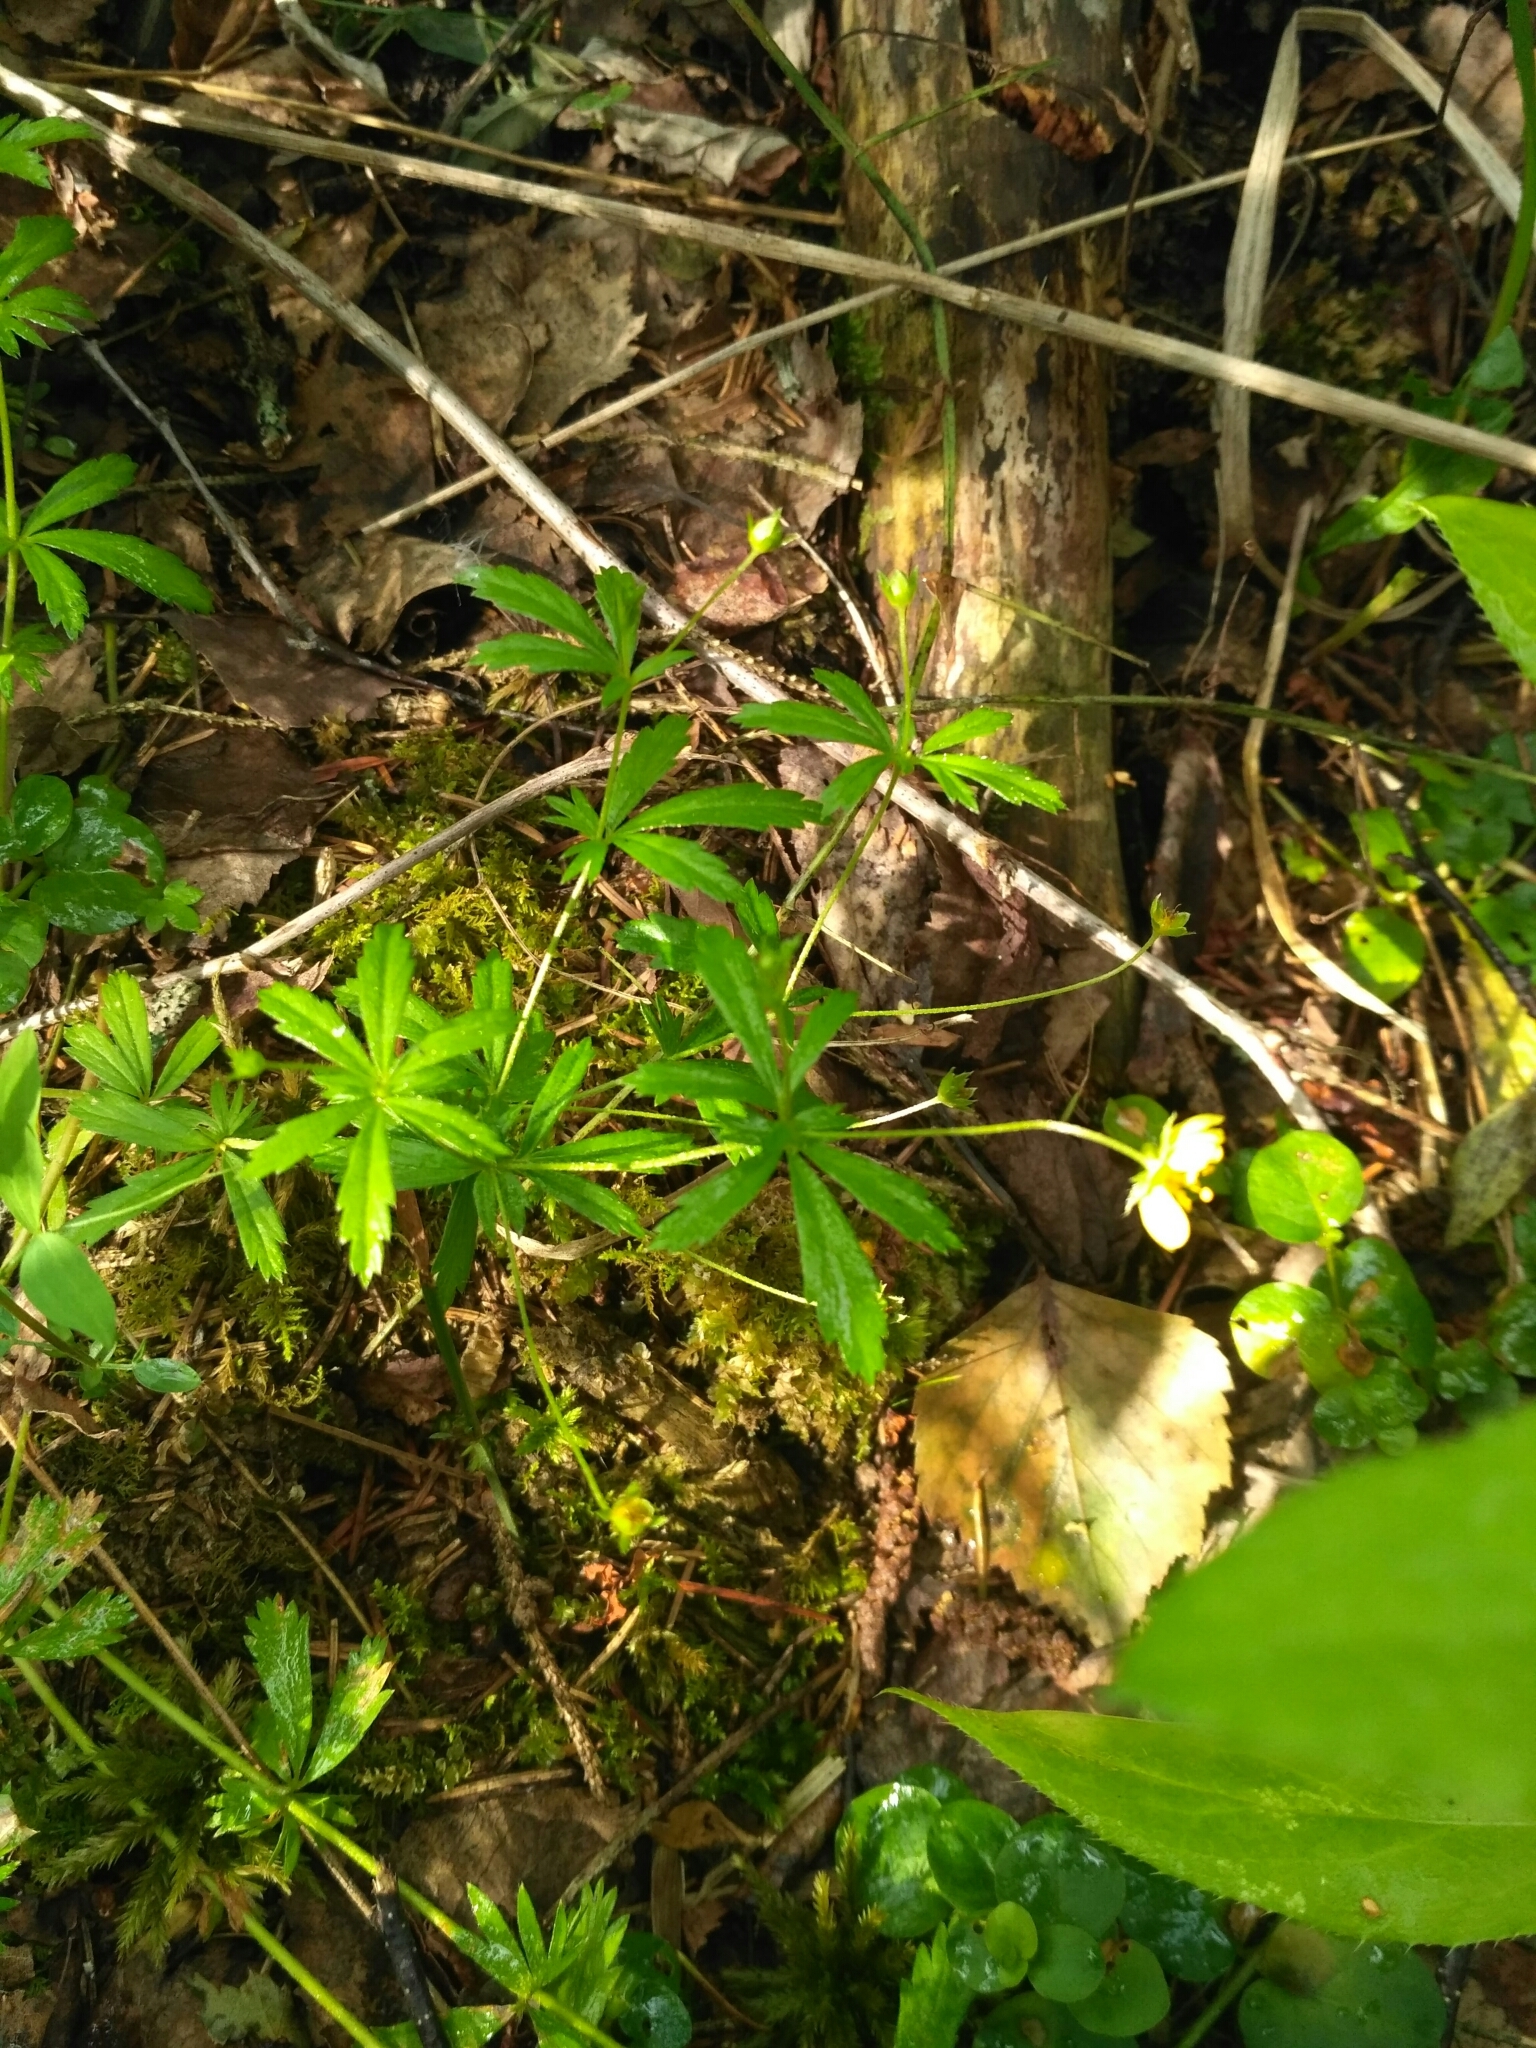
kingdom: Plantae
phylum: Tracheophyta
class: Magnoliopsida
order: Rosales
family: Rosaceae
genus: Potentilla
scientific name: Potentilla erecta
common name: Tormentil
